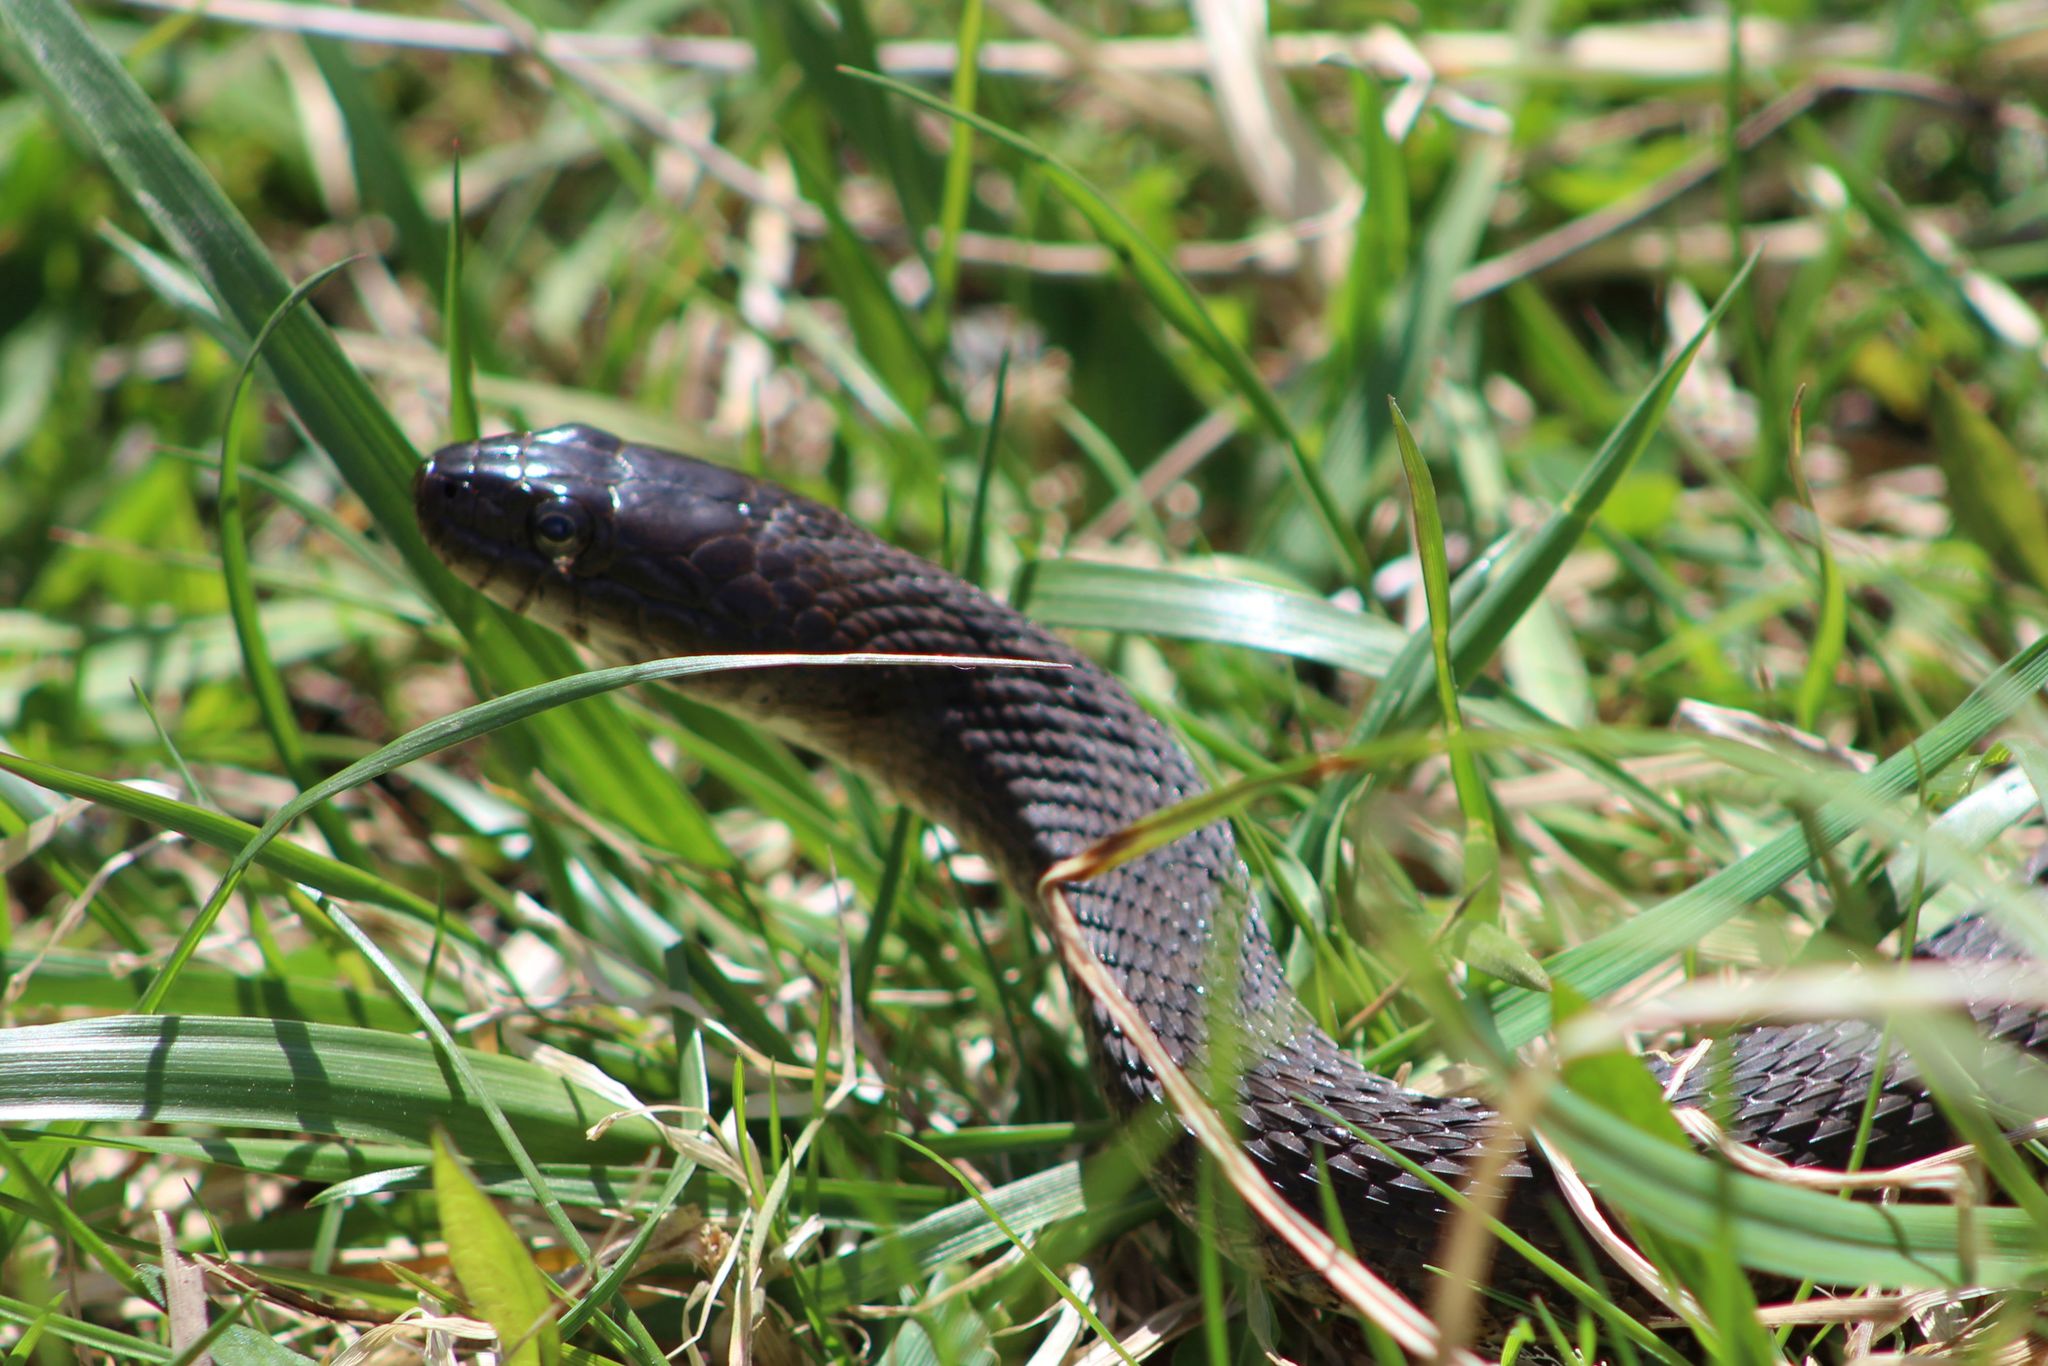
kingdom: Animalia
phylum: Chordata
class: Squamata
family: Colubridae
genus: Nerodia
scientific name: Nerodia sipedon
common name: Northern water snake
